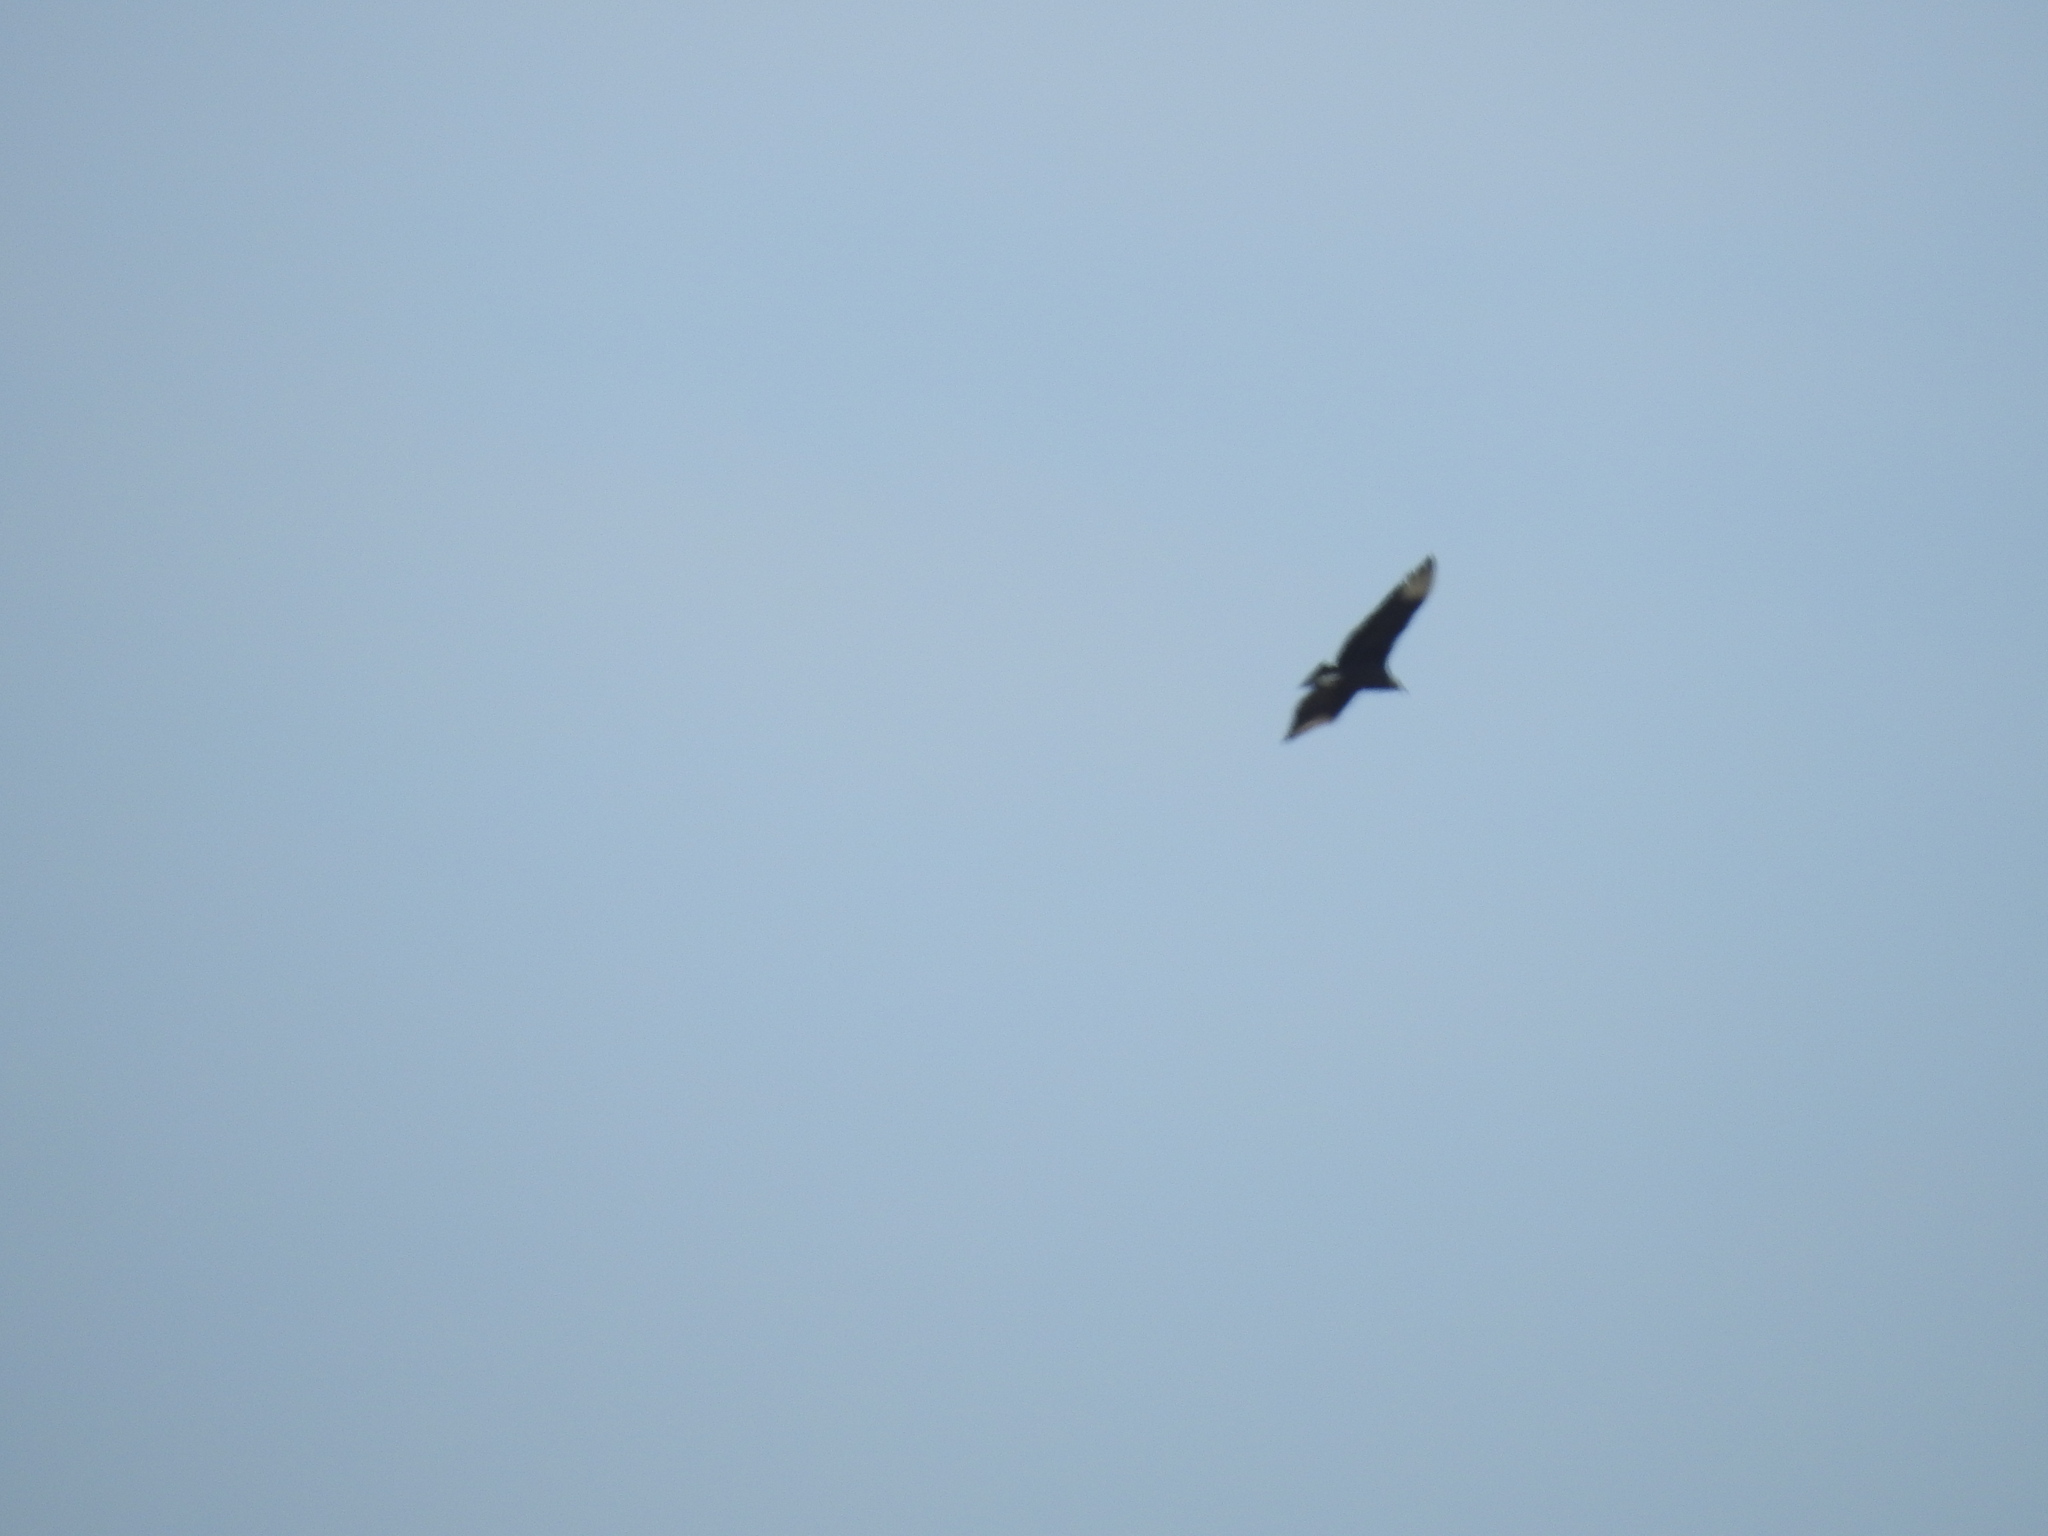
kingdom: Animalia
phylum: Chordata
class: Aves
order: Accipitriformes
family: Cathartidae
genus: Coragyps
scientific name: Coragyps atratus
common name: Black vulture
